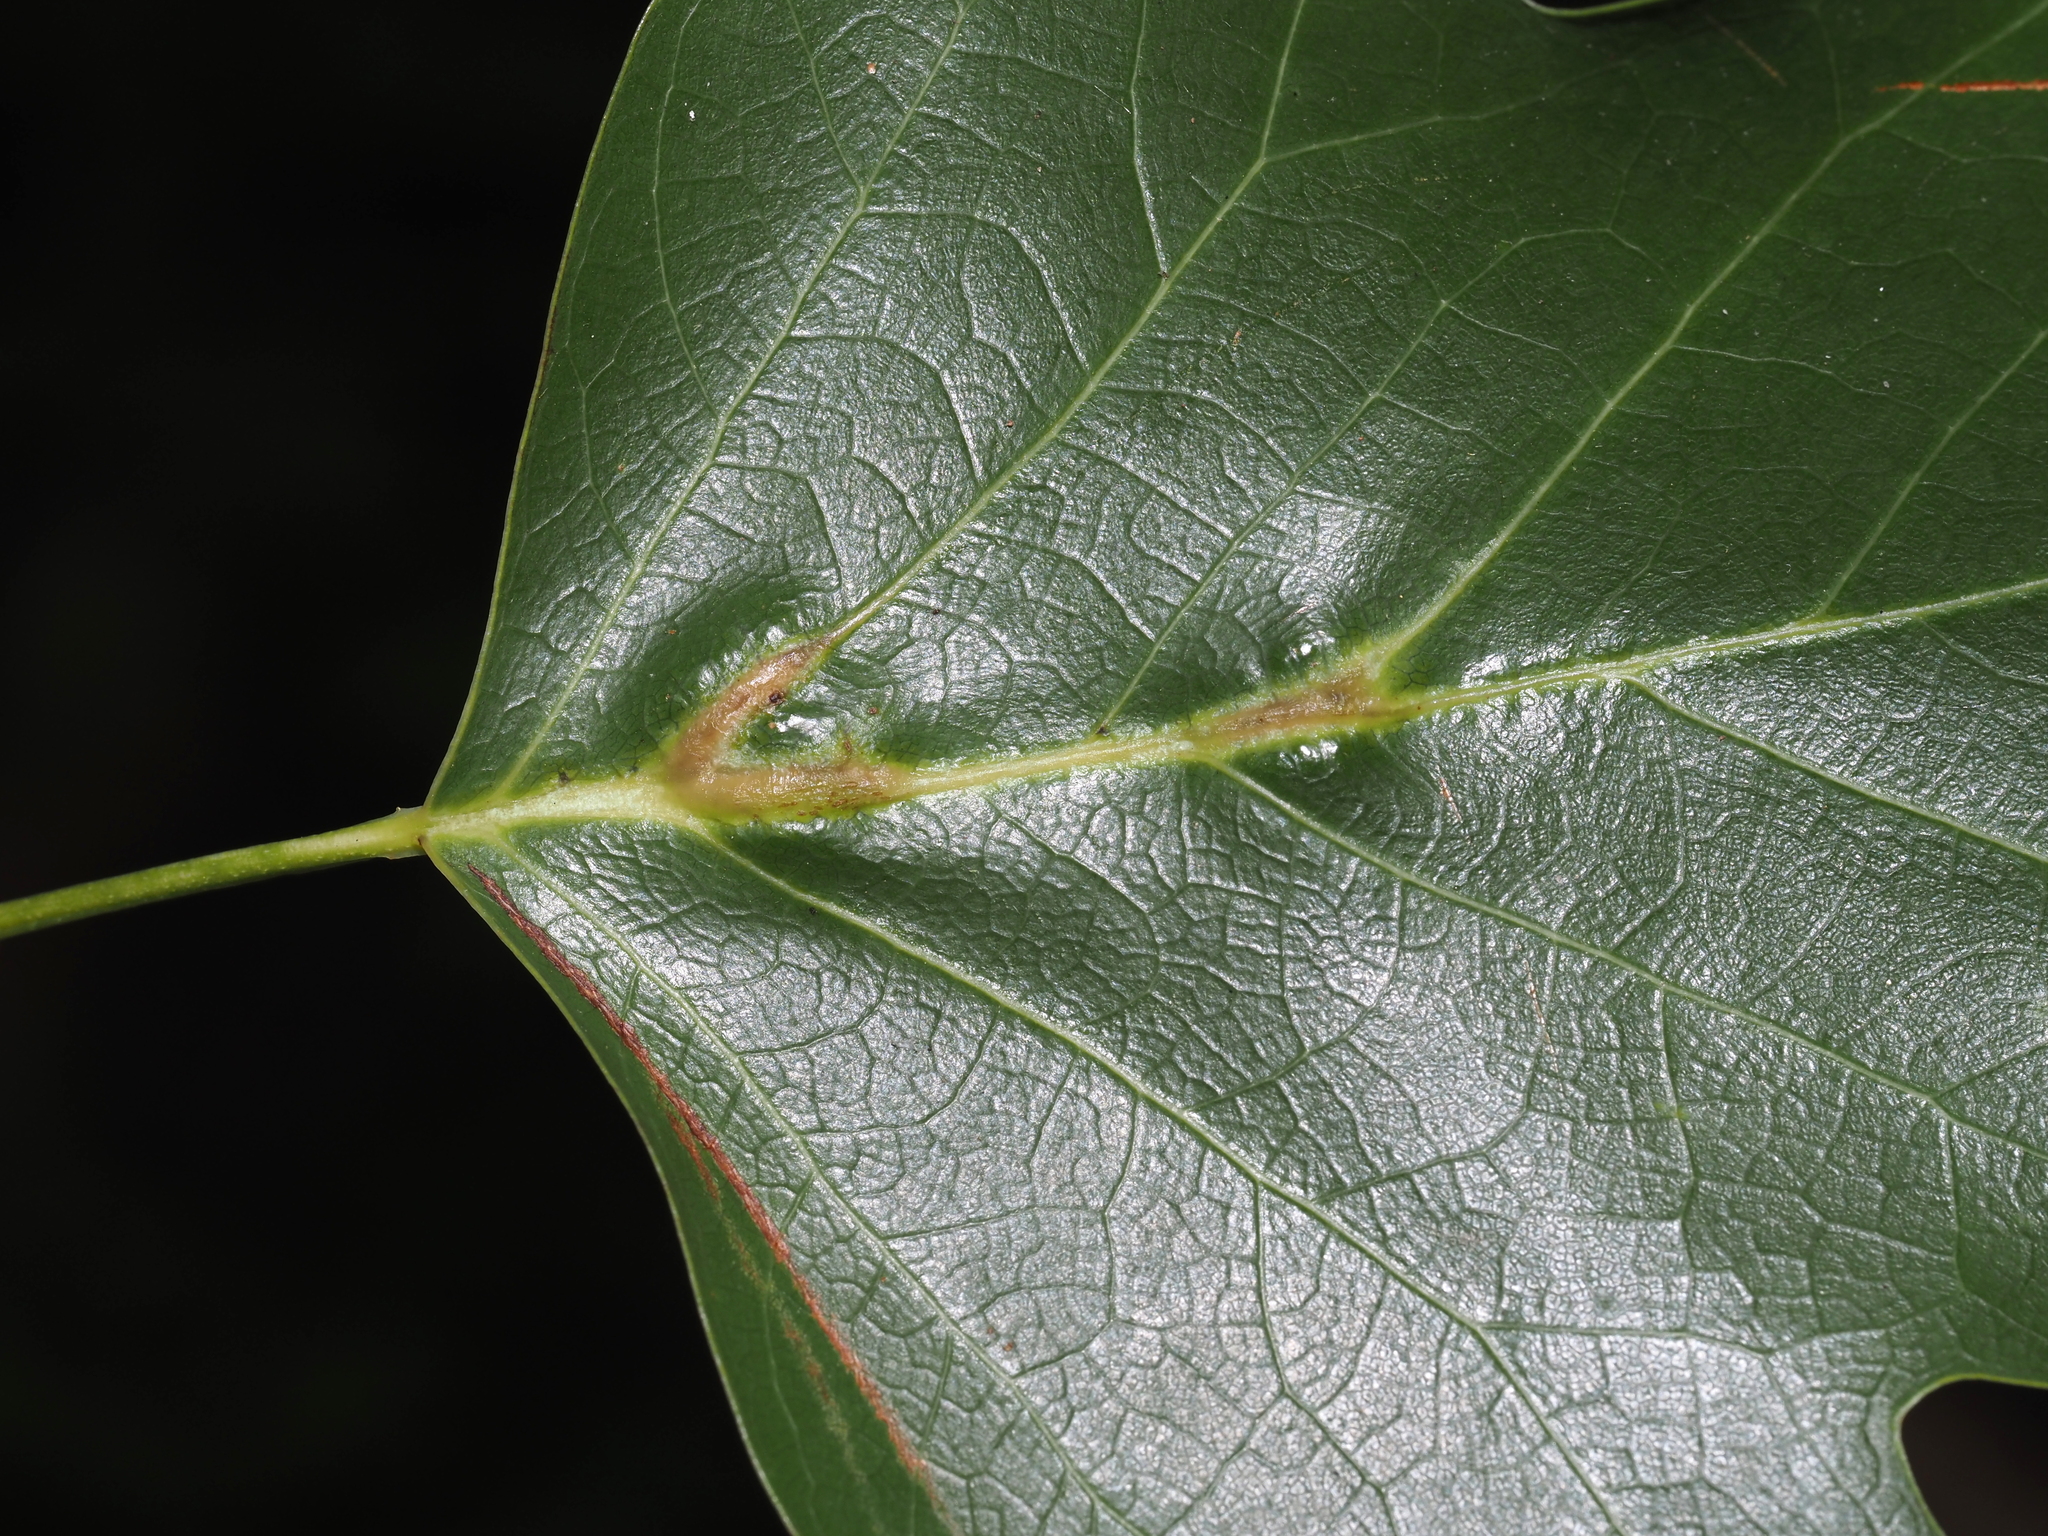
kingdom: Animalia
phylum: Arthropoda
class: Insecta
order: Diptera
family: Cecidomyiidae
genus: Resseliella
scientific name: Resseliella tulipiferae
